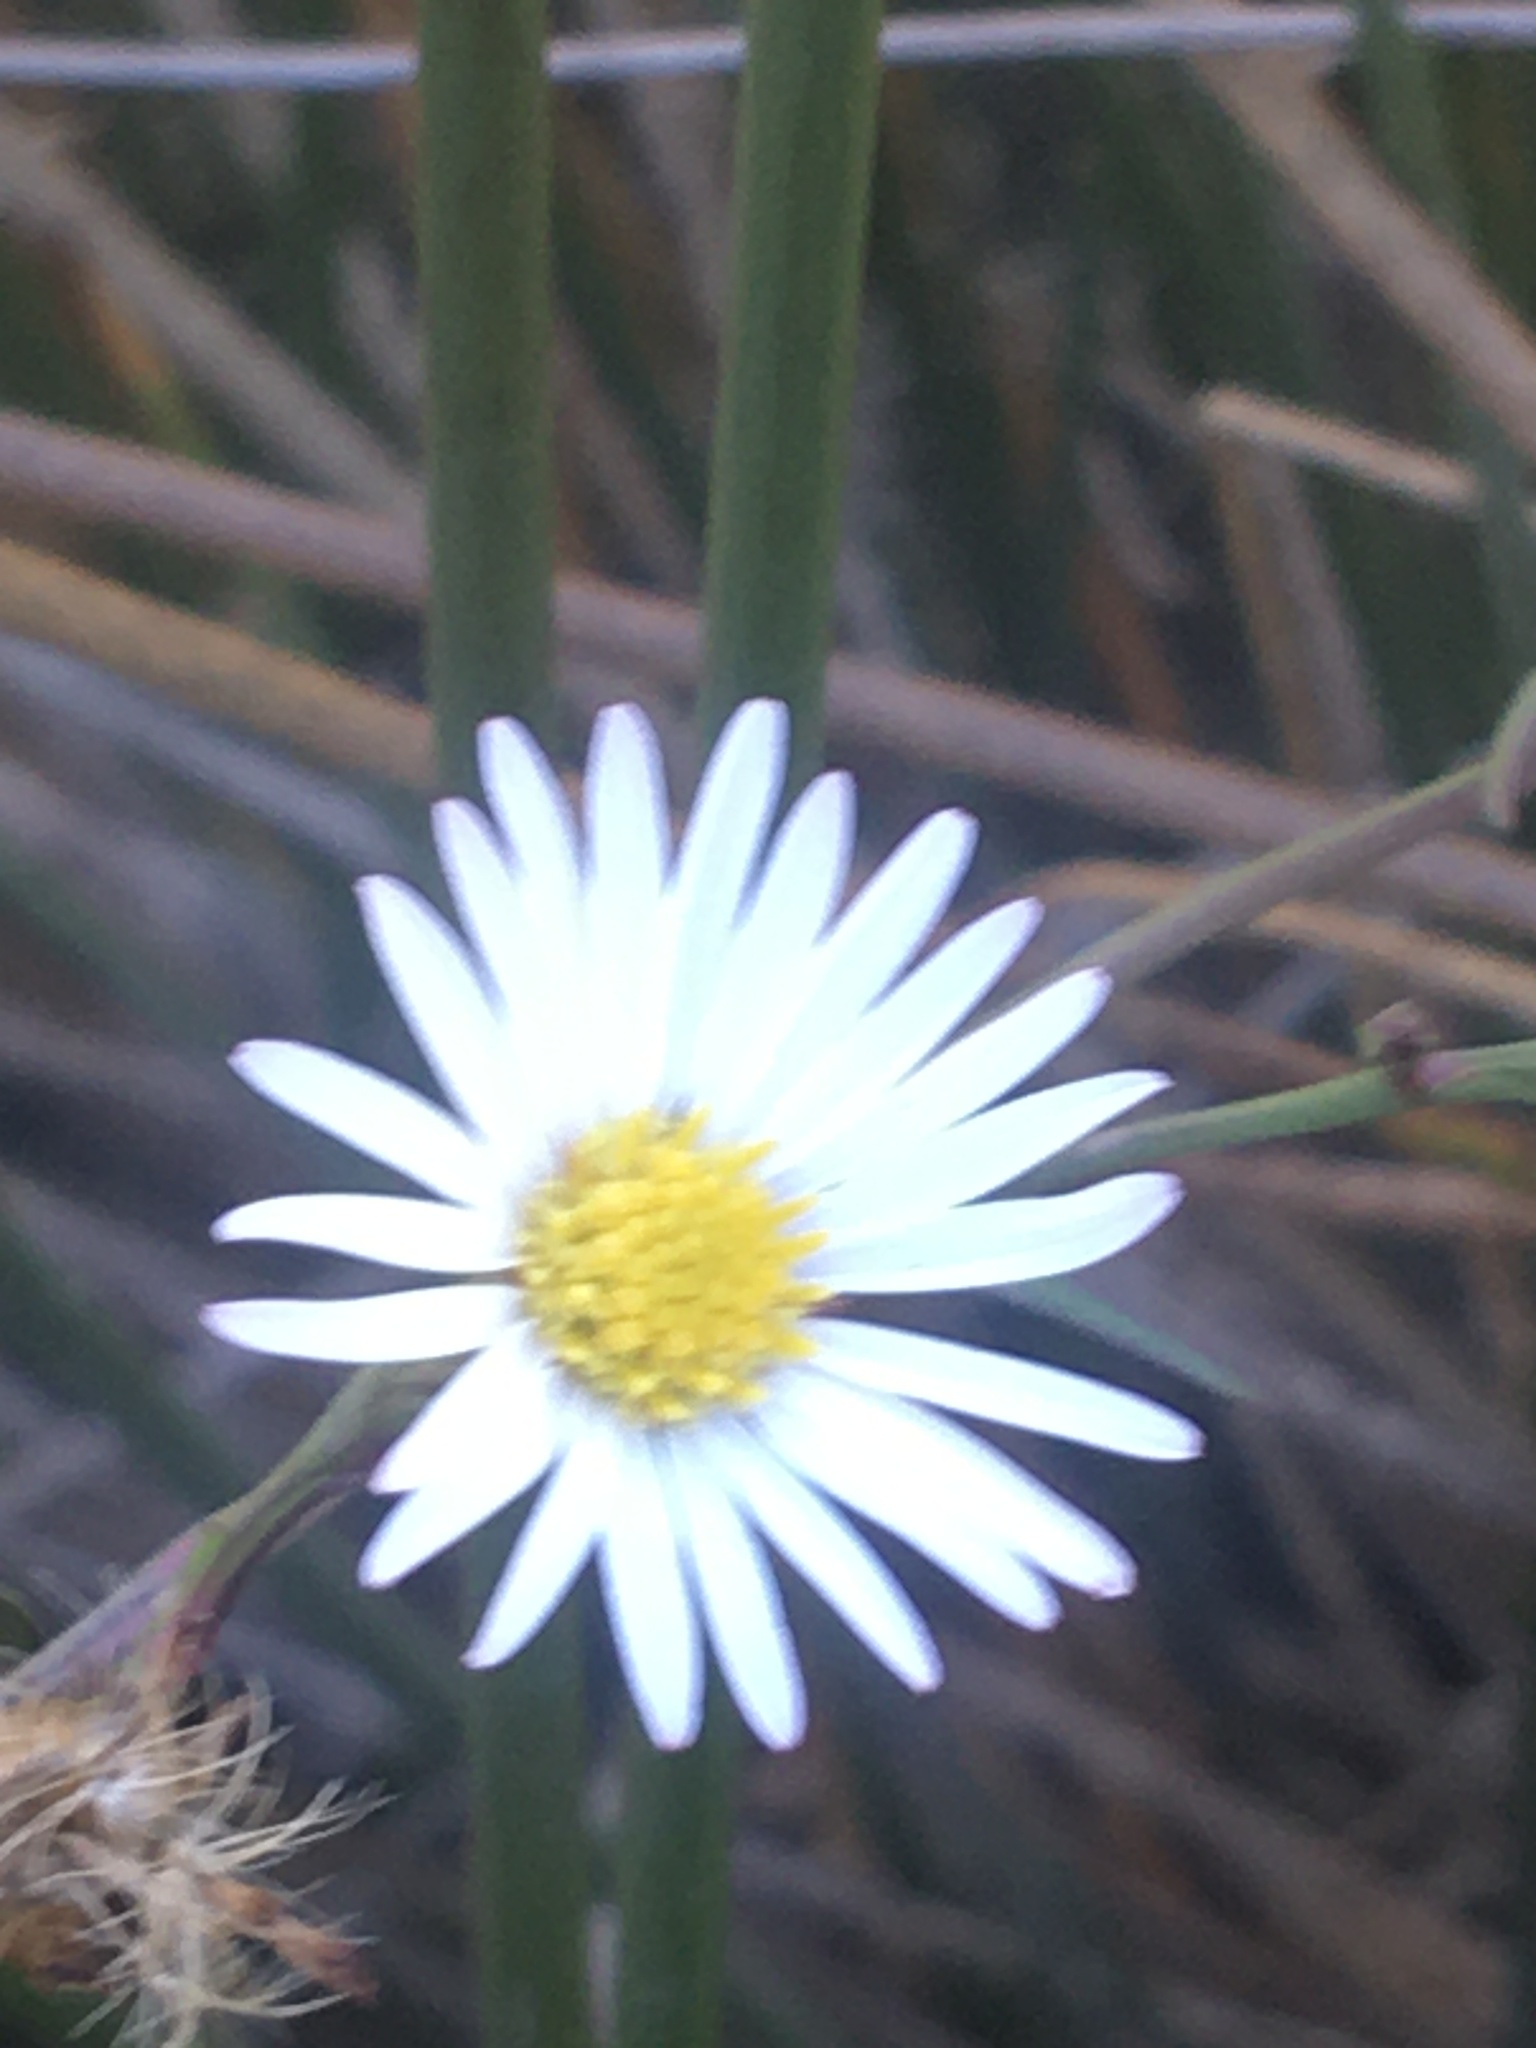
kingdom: Plantae
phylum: Tracheophyta
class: Magnoliopsida
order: Asterales
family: Asteraceae
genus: Symphyotrichum
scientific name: Symphyotrichum tenuifolium
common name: Perennial salt-marsh aster
